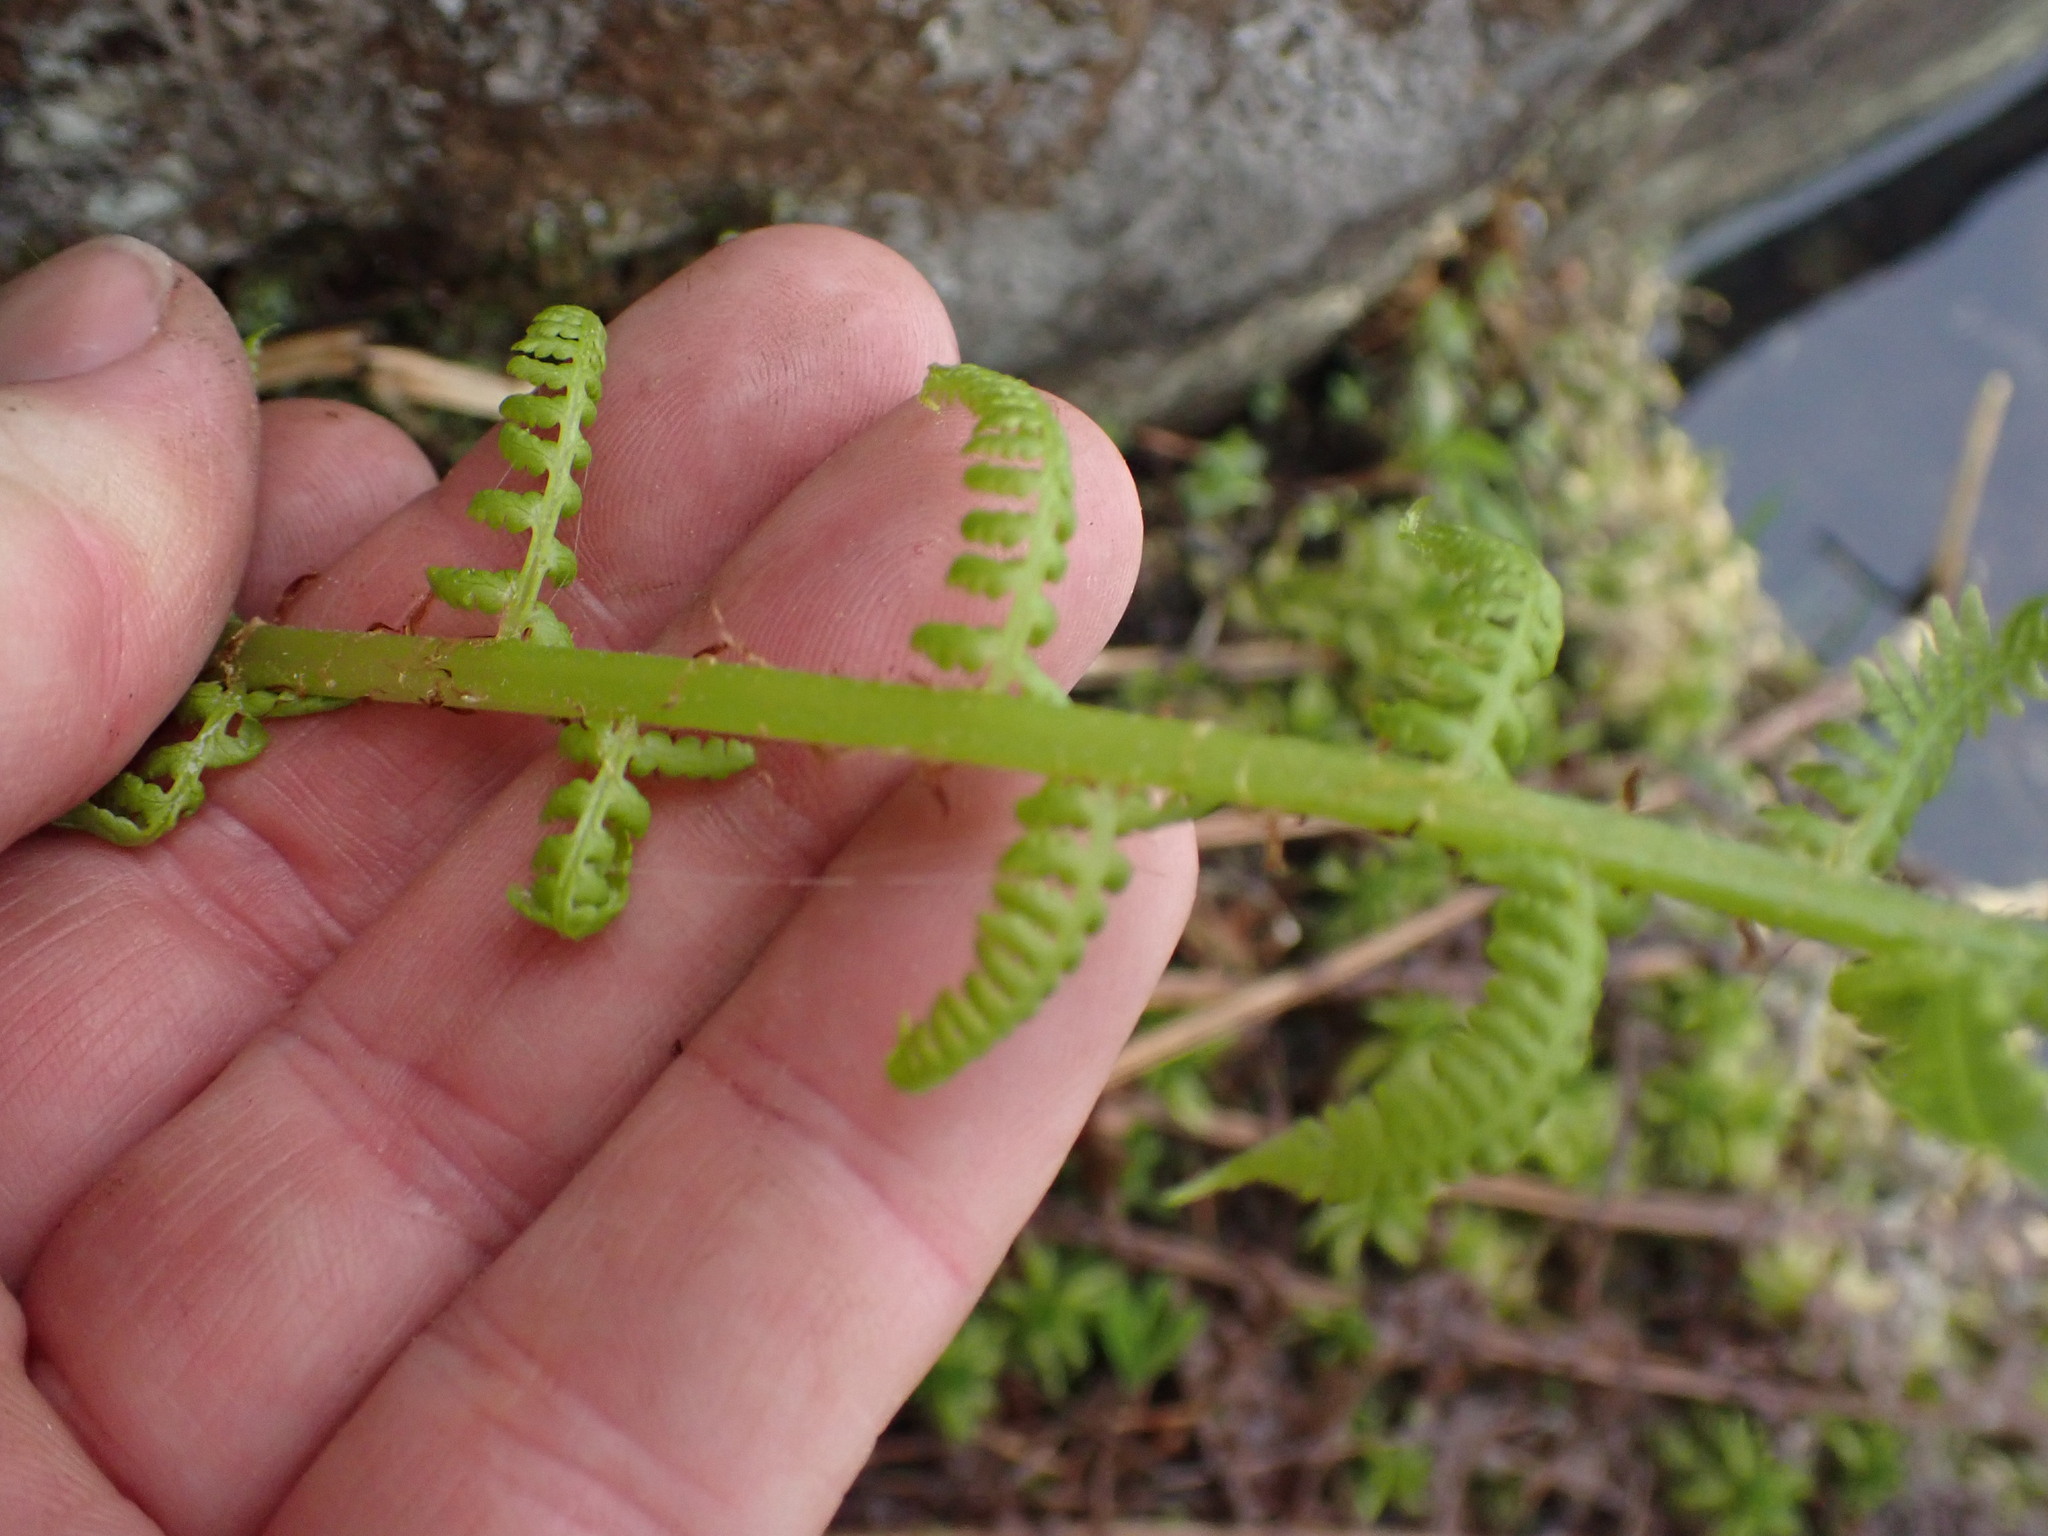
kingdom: Plantae
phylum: Tracheophyta
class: Polypodiopsida
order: Polypodiales
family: Athyriaceae
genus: Athyrium
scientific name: Athyrium filix-femina
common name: Lady fern
